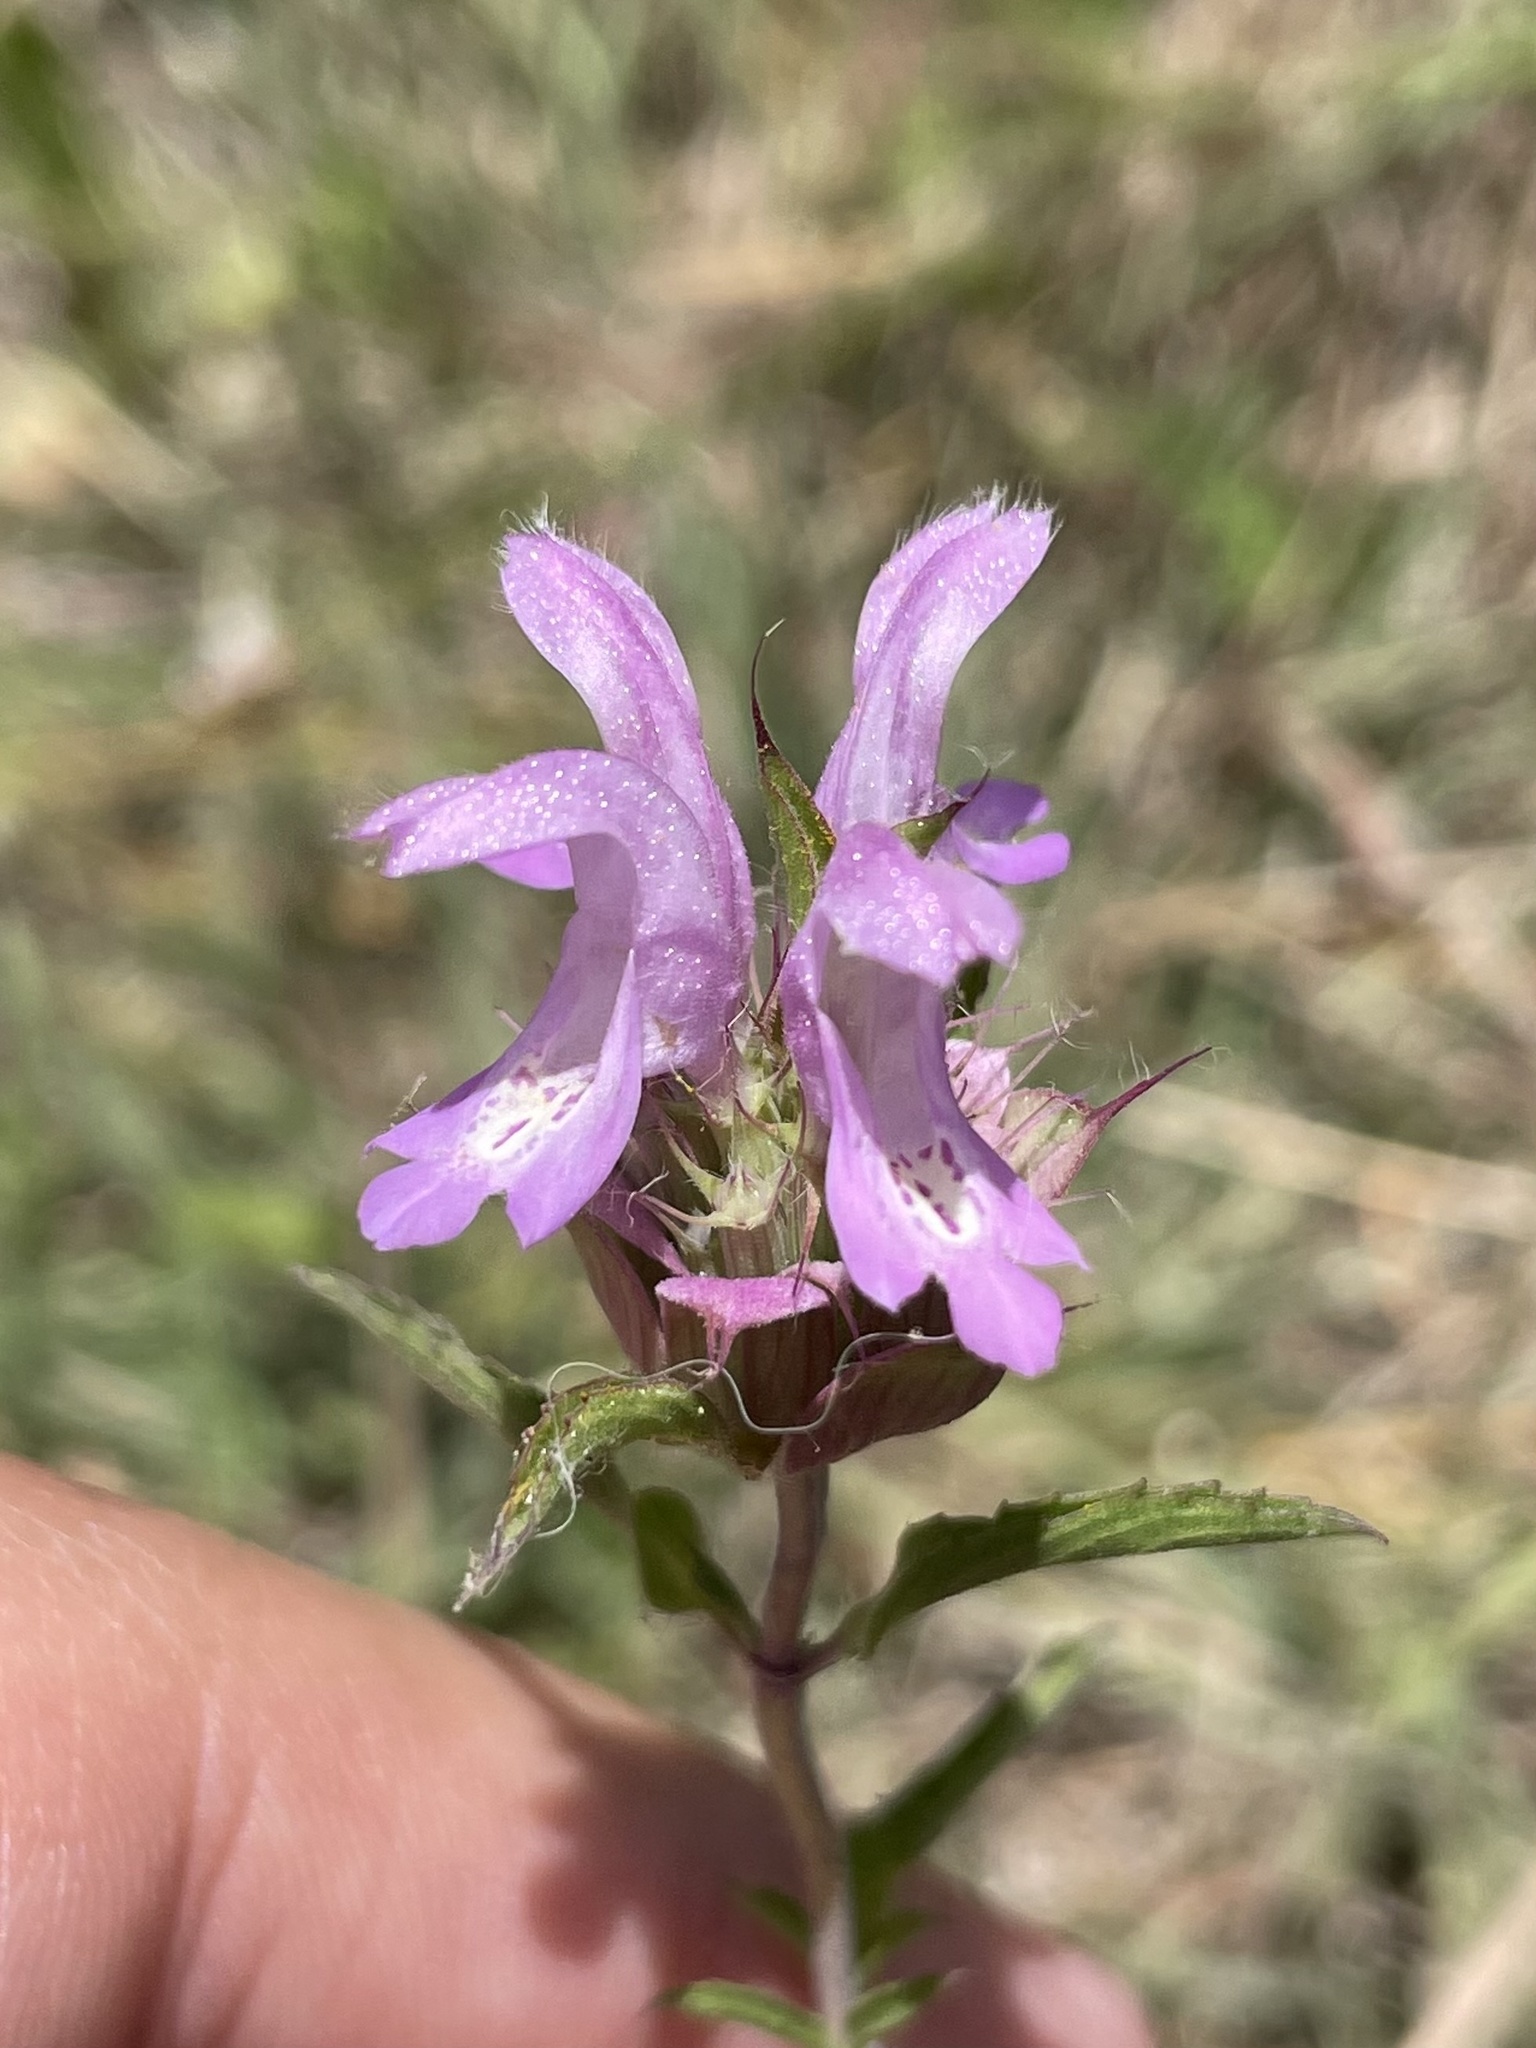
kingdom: Plantae
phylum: Tracheophyta
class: Magnoliopsida
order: Lamiales
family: Lamiaceae
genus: Monarda
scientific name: Monarda citriodora
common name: Lemon beebalm
